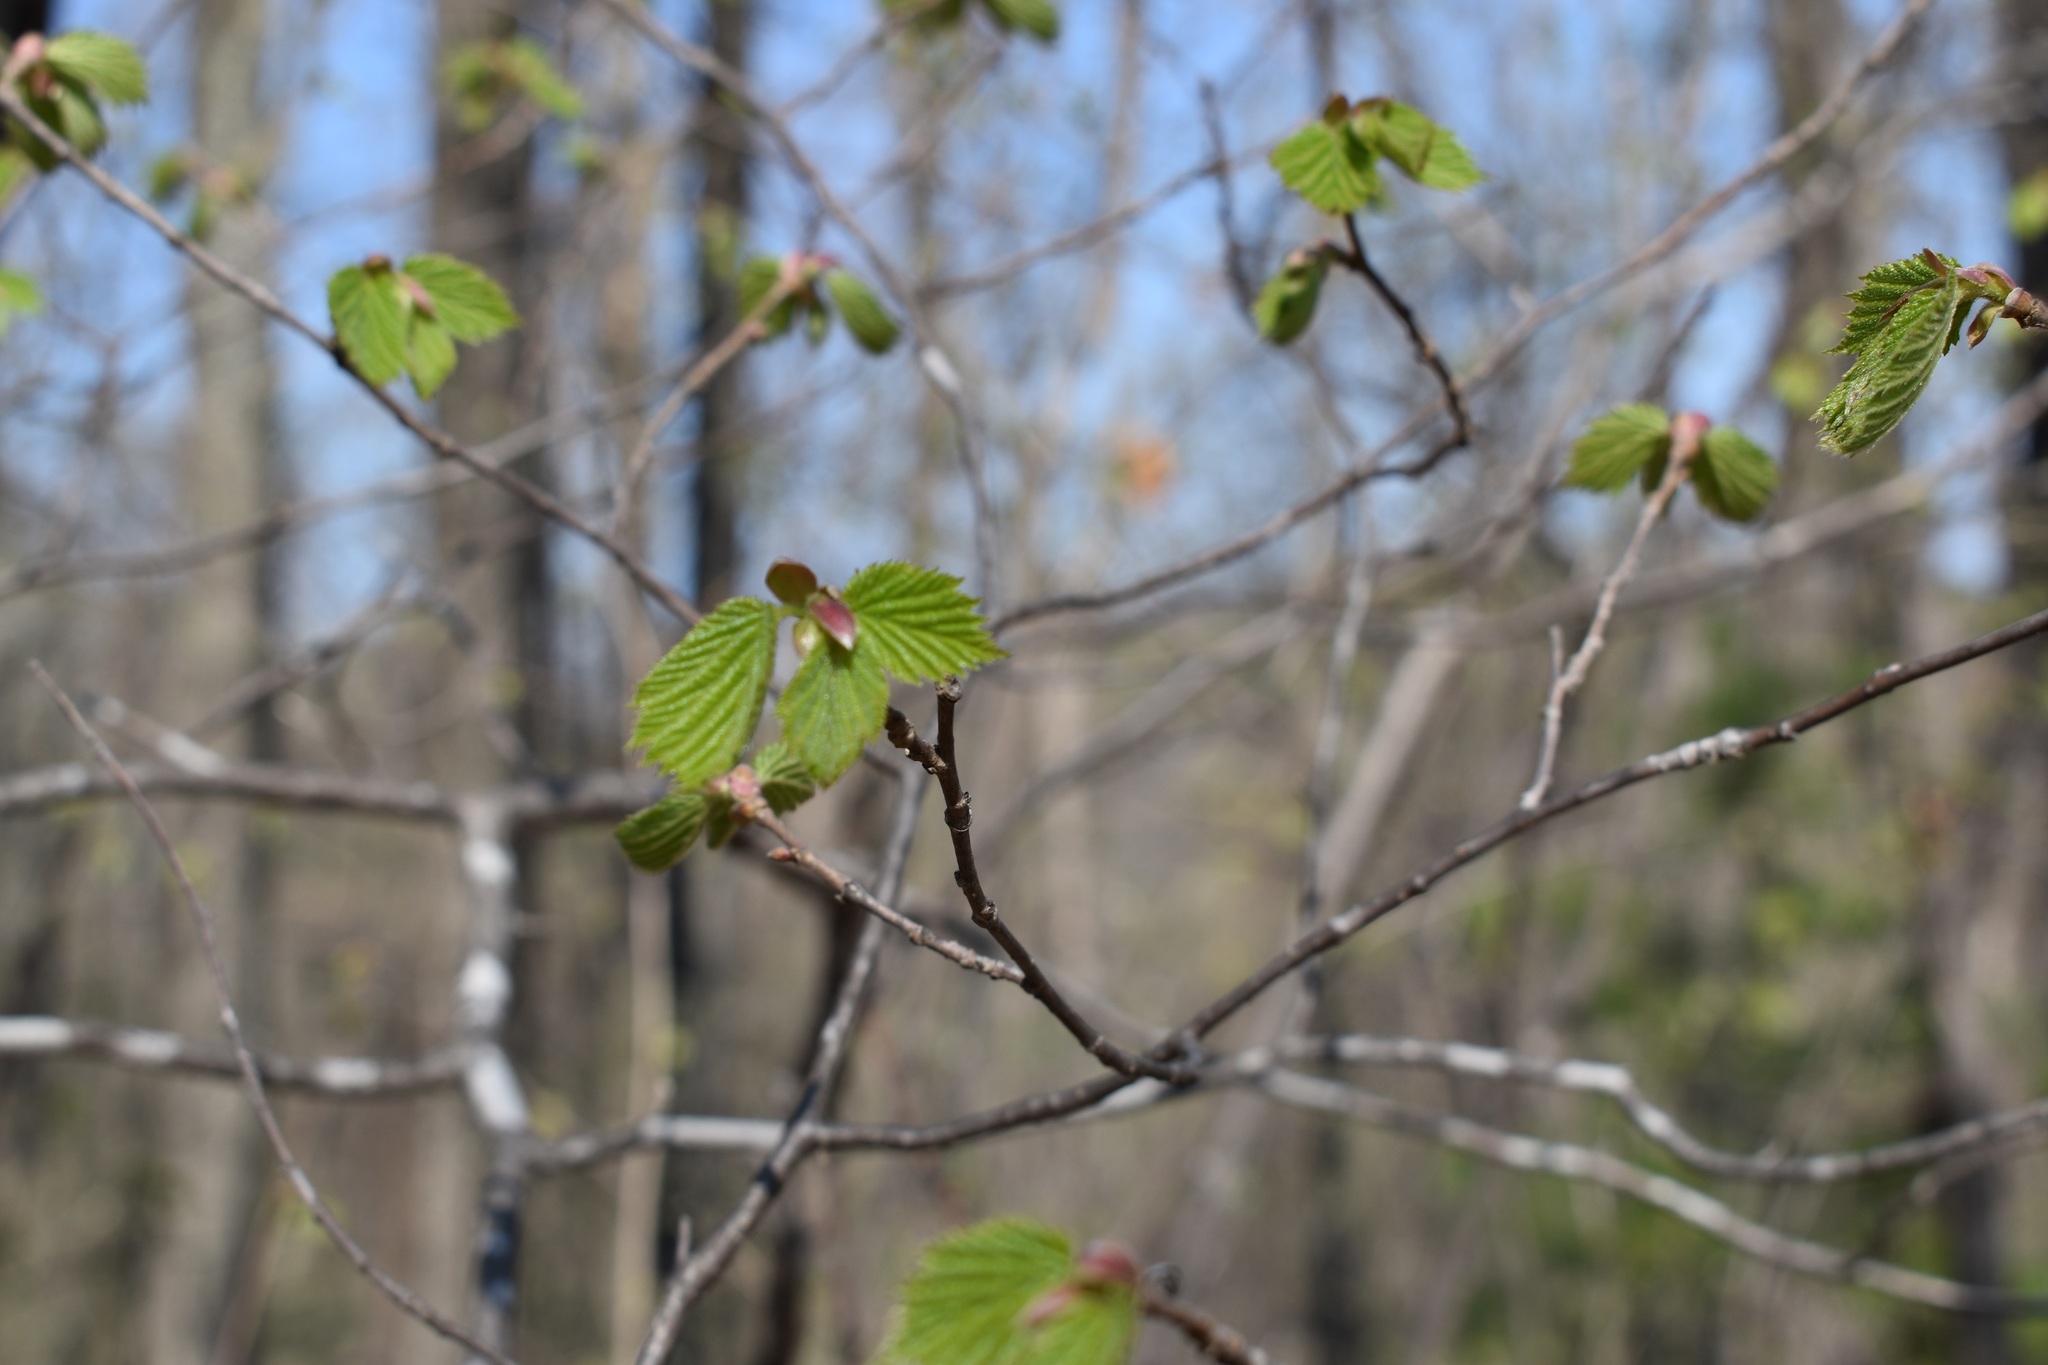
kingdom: Plantae
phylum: Tracheophyta
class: Magnoliopsida
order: Fagales
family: Betulaceae
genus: Corylus
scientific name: Corylus sieboldiana
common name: Japanese hazel
